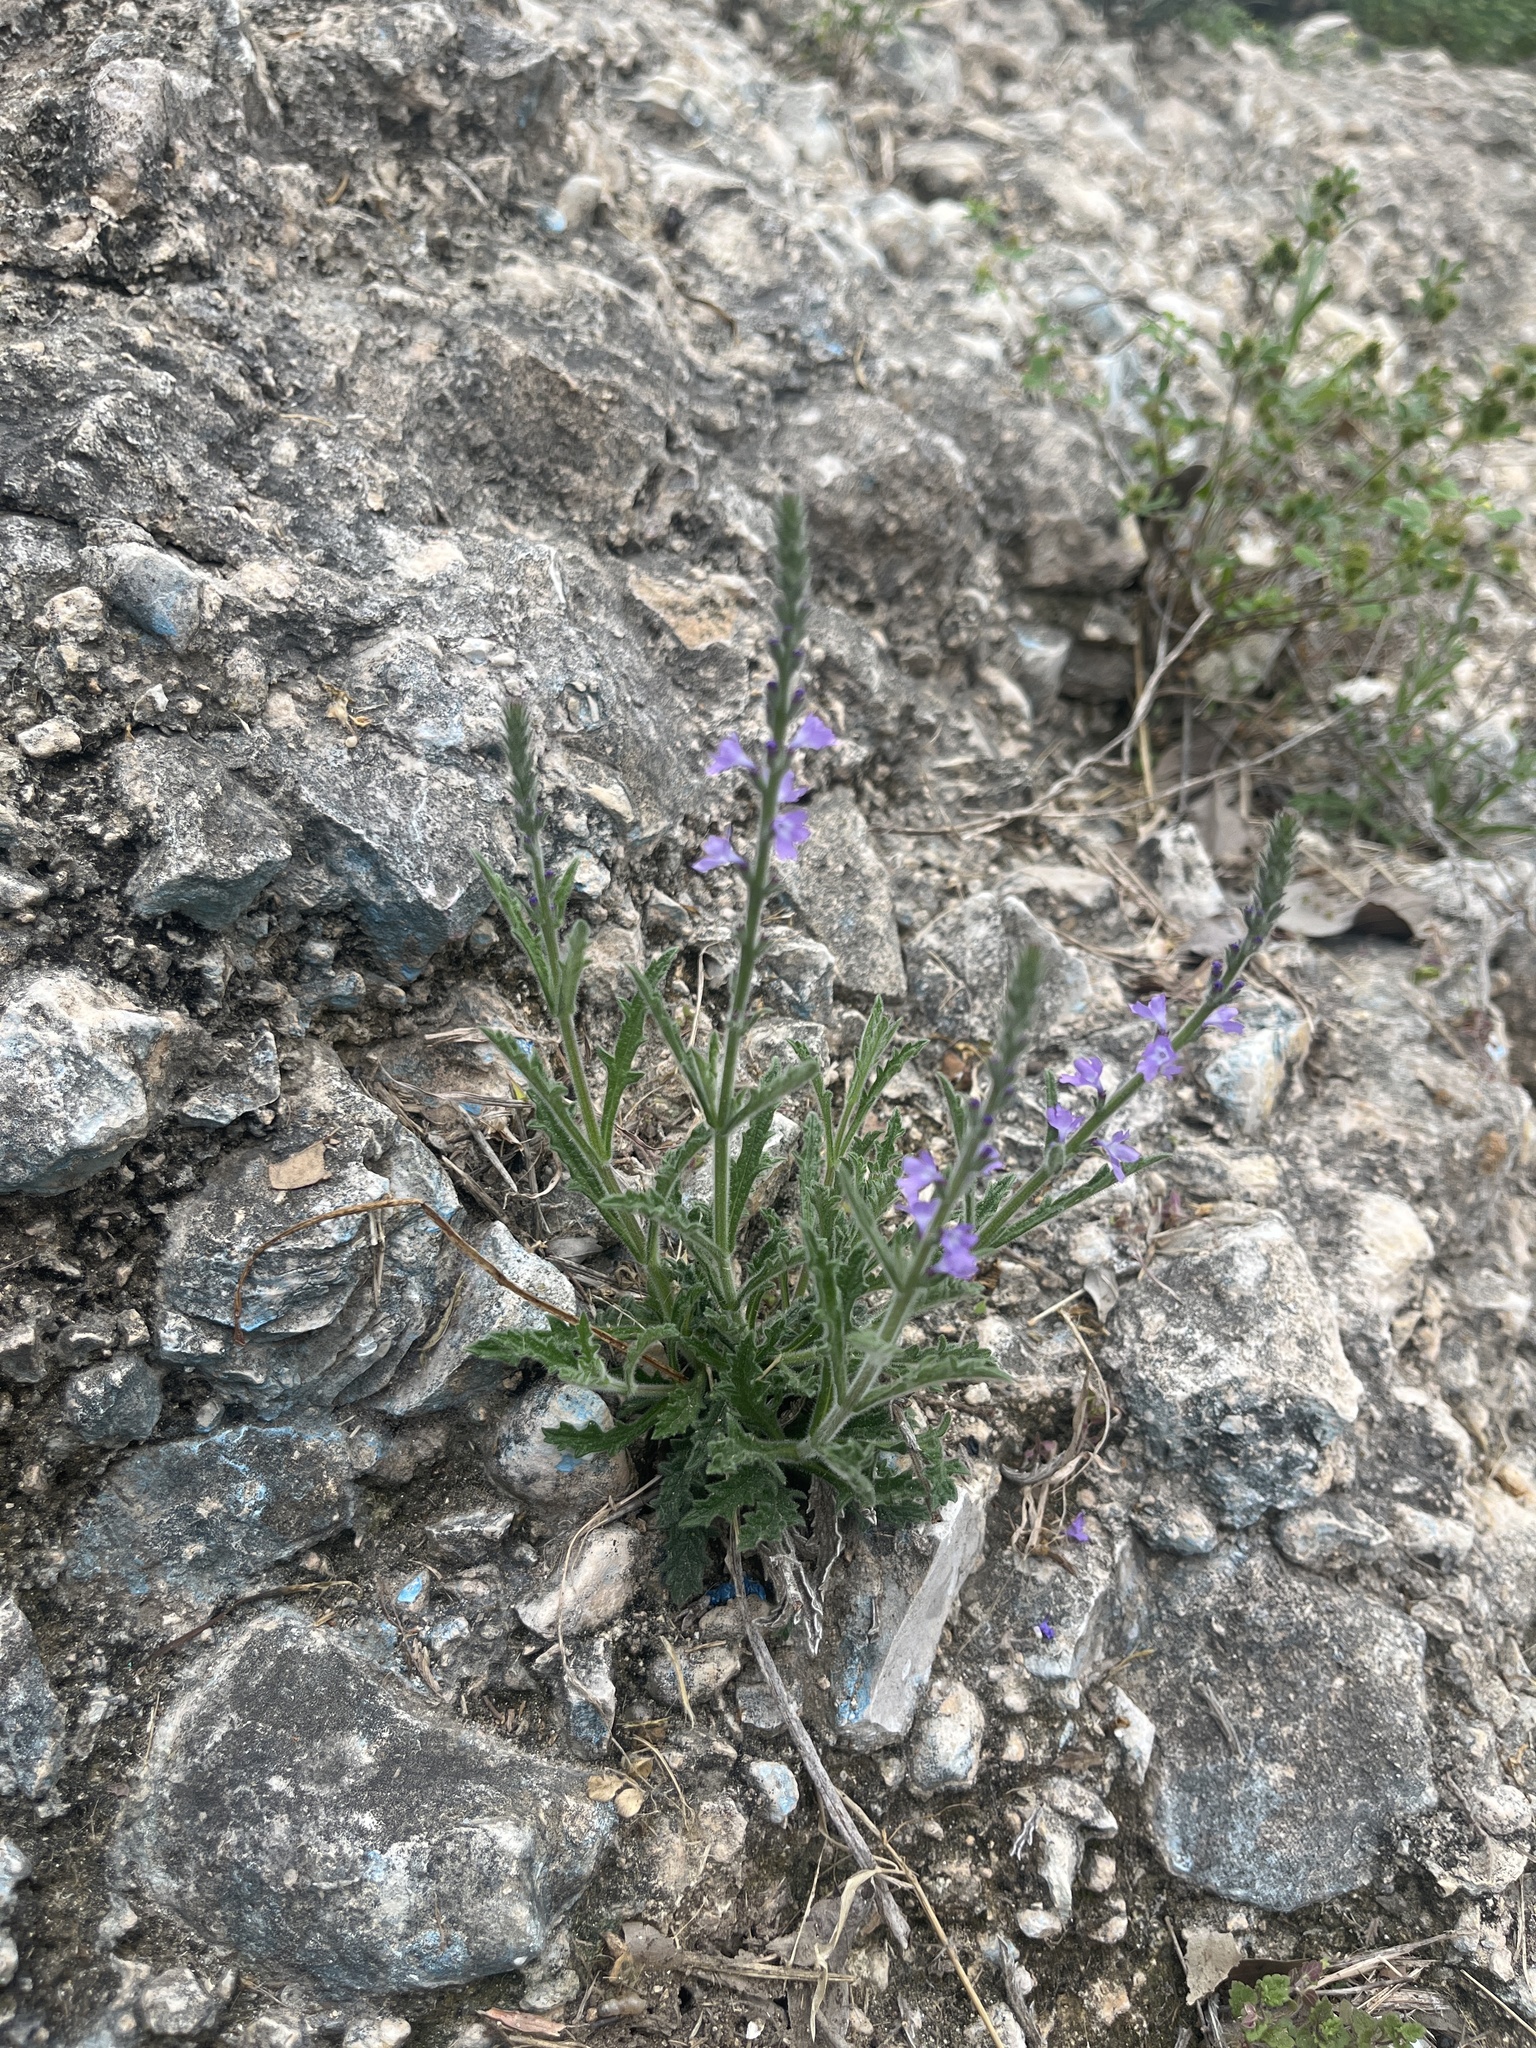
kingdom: Plantae
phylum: Tracheophyta
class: Magnoliopsida
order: Lamiales
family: Verbenaceae
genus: Verbena
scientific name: Verbena canescens
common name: Gray vervain
